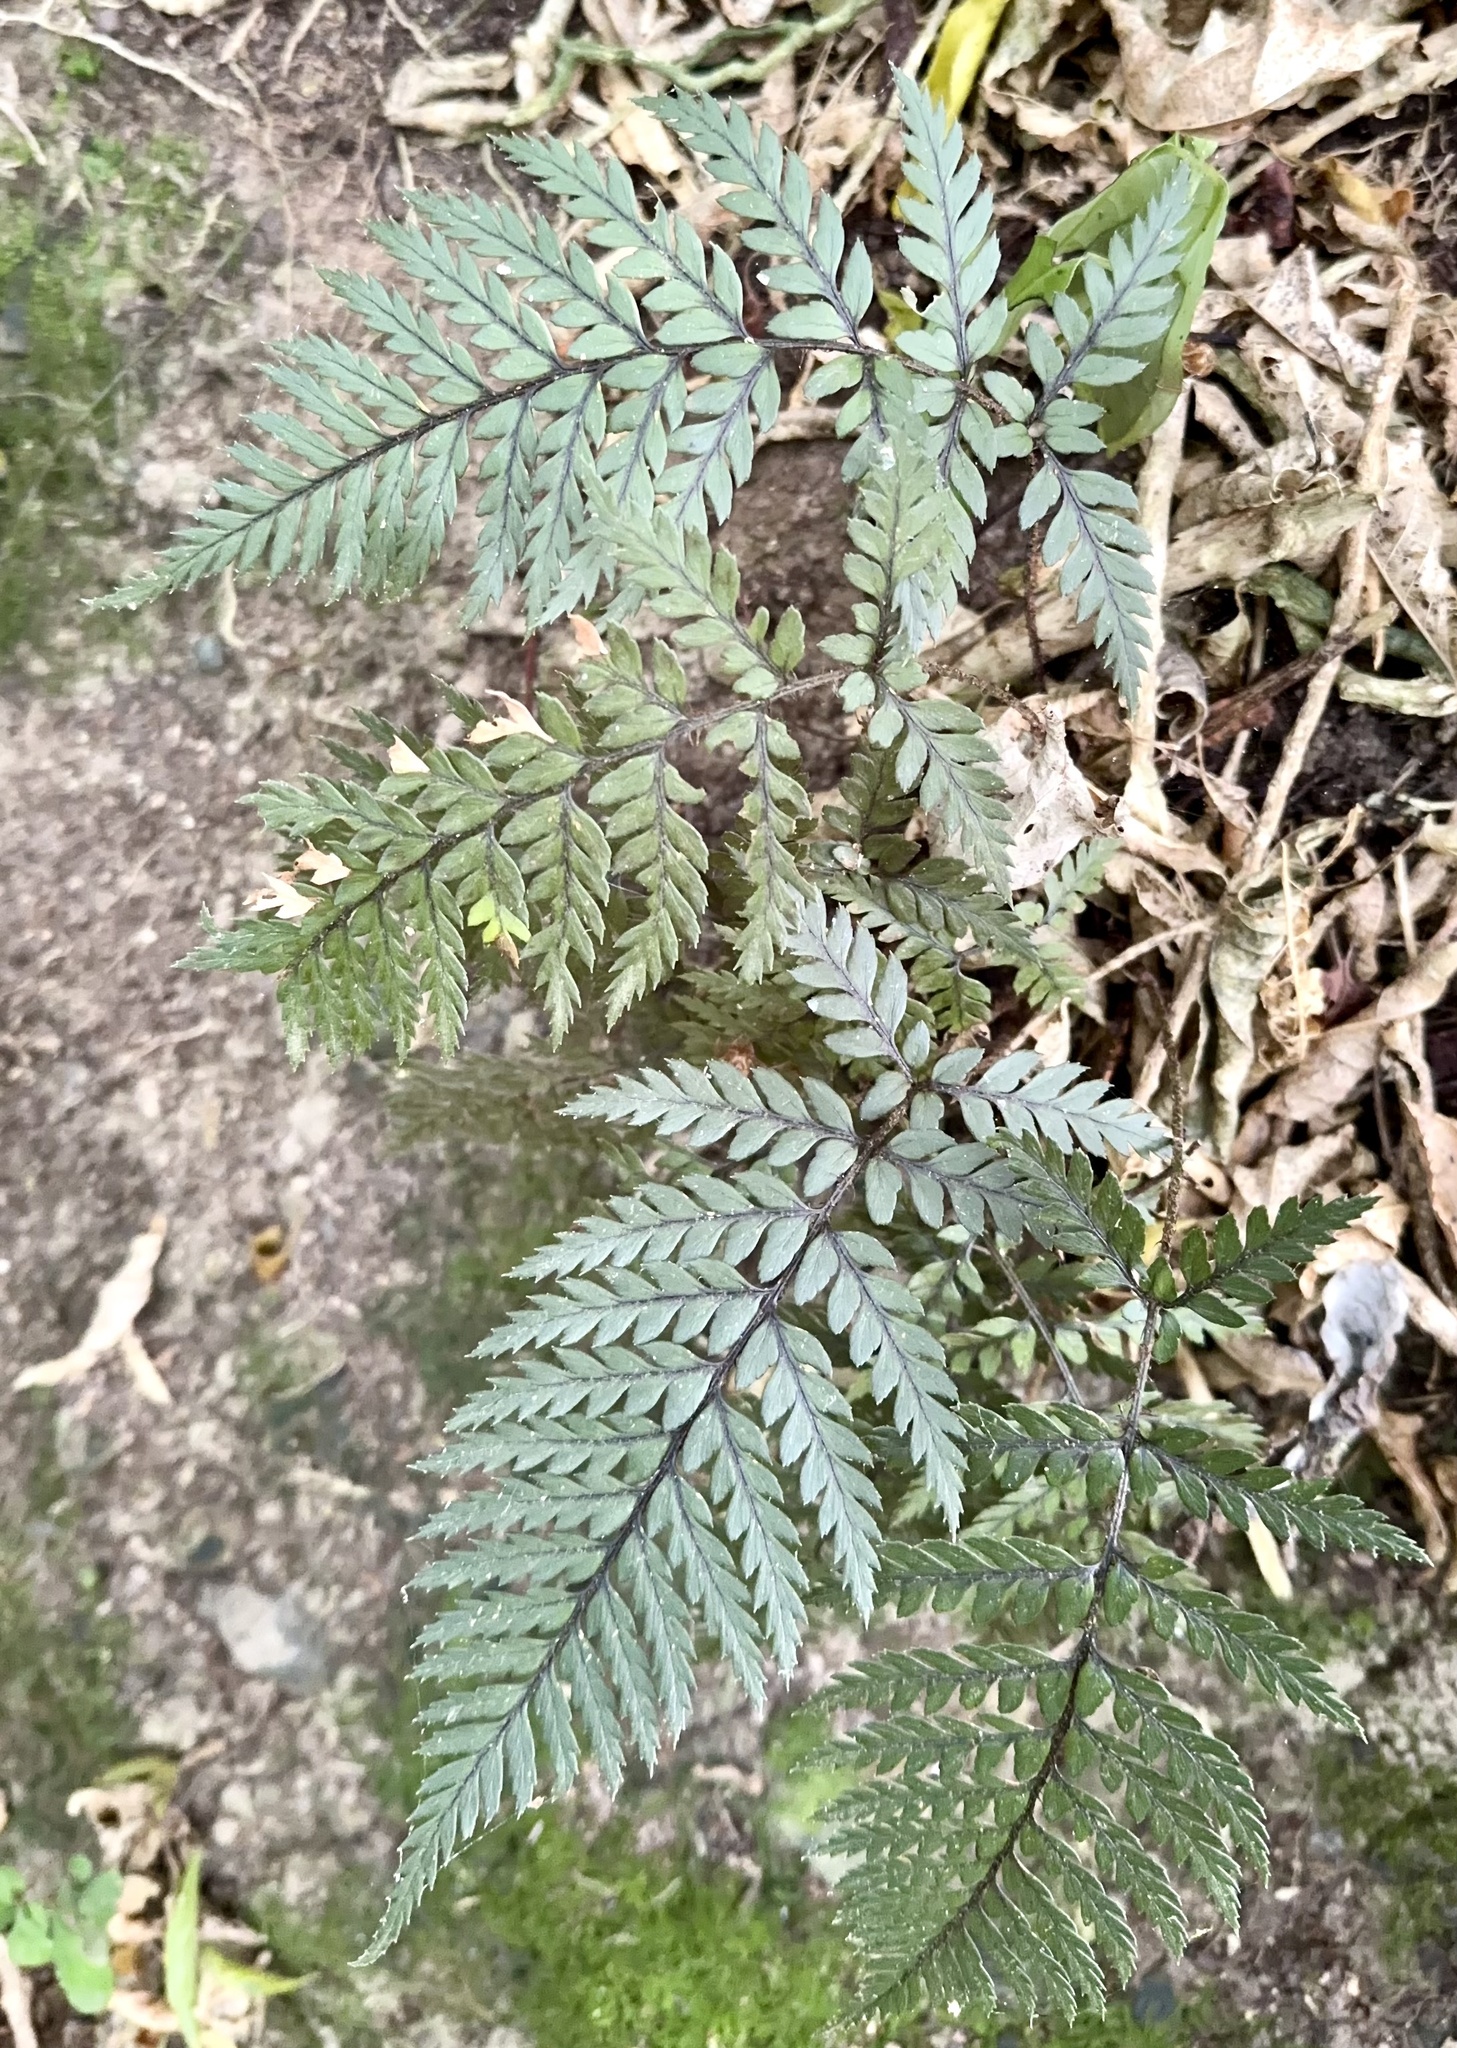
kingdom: Plantae
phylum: Tracheophyta
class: Polypodiopsida
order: Polypodiales
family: Dryopteridaceae
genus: Polystichum
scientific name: Polystichum neozelandicum
